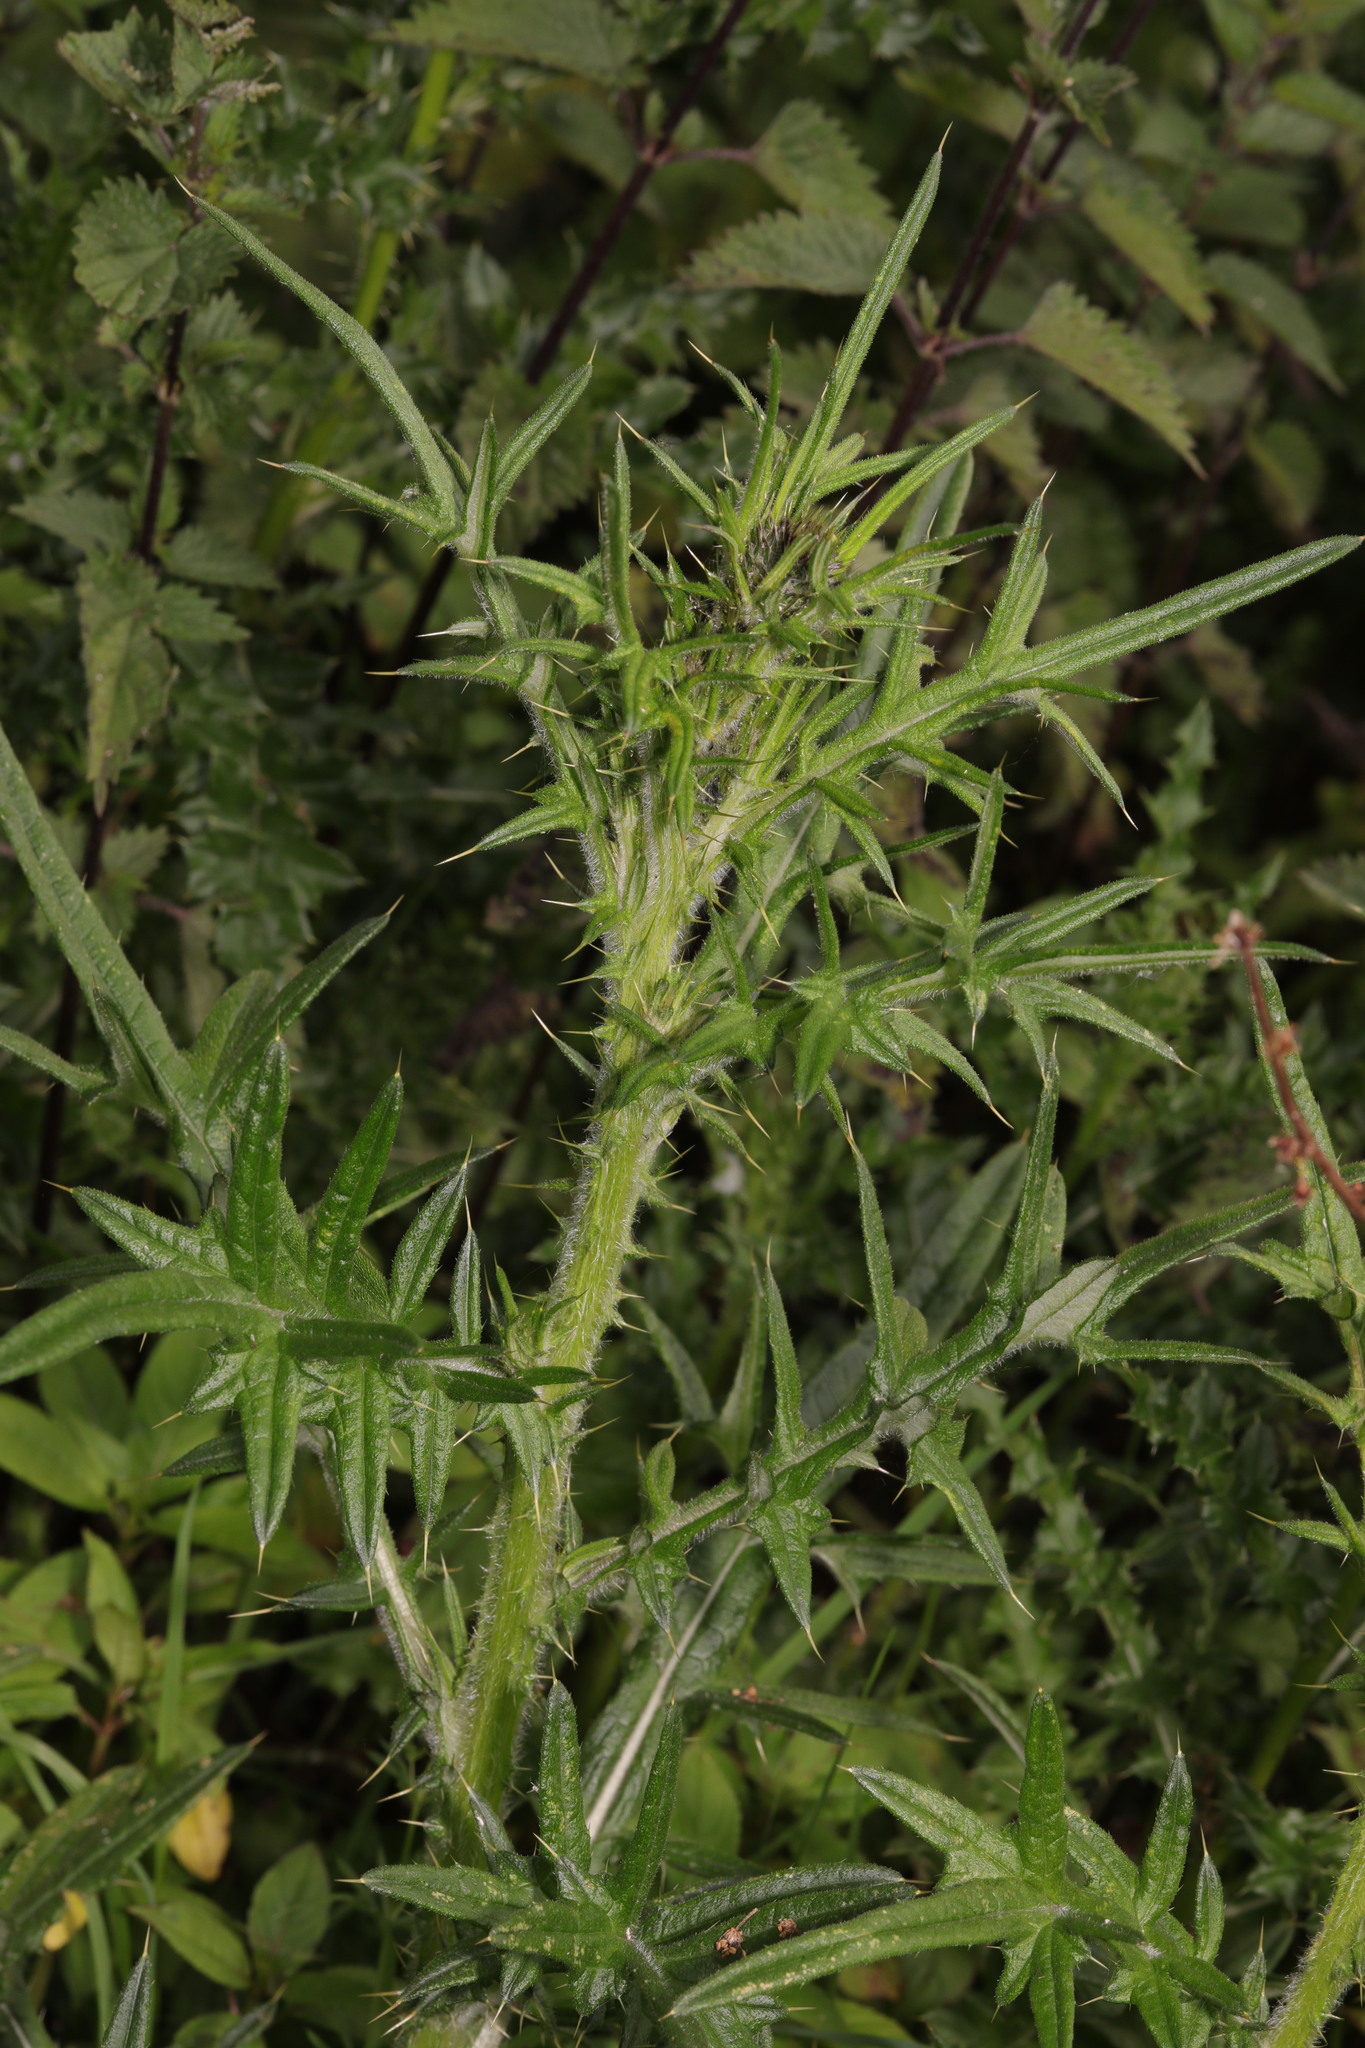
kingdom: Plantae
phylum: Tracheophyta
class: Magnoliopsida
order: Asterales
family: Asteraceae
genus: Cirsium
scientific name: Cirsium vulgare
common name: Bull thistle
